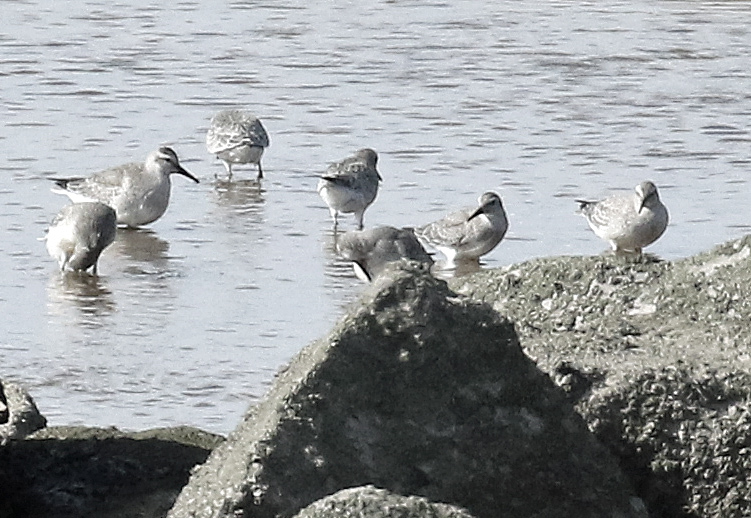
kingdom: Animalia
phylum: Chordata
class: Aves
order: Charadriiformes
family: Scolopacidae
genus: Calidris
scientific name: Calidris canutus
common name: Red knot
